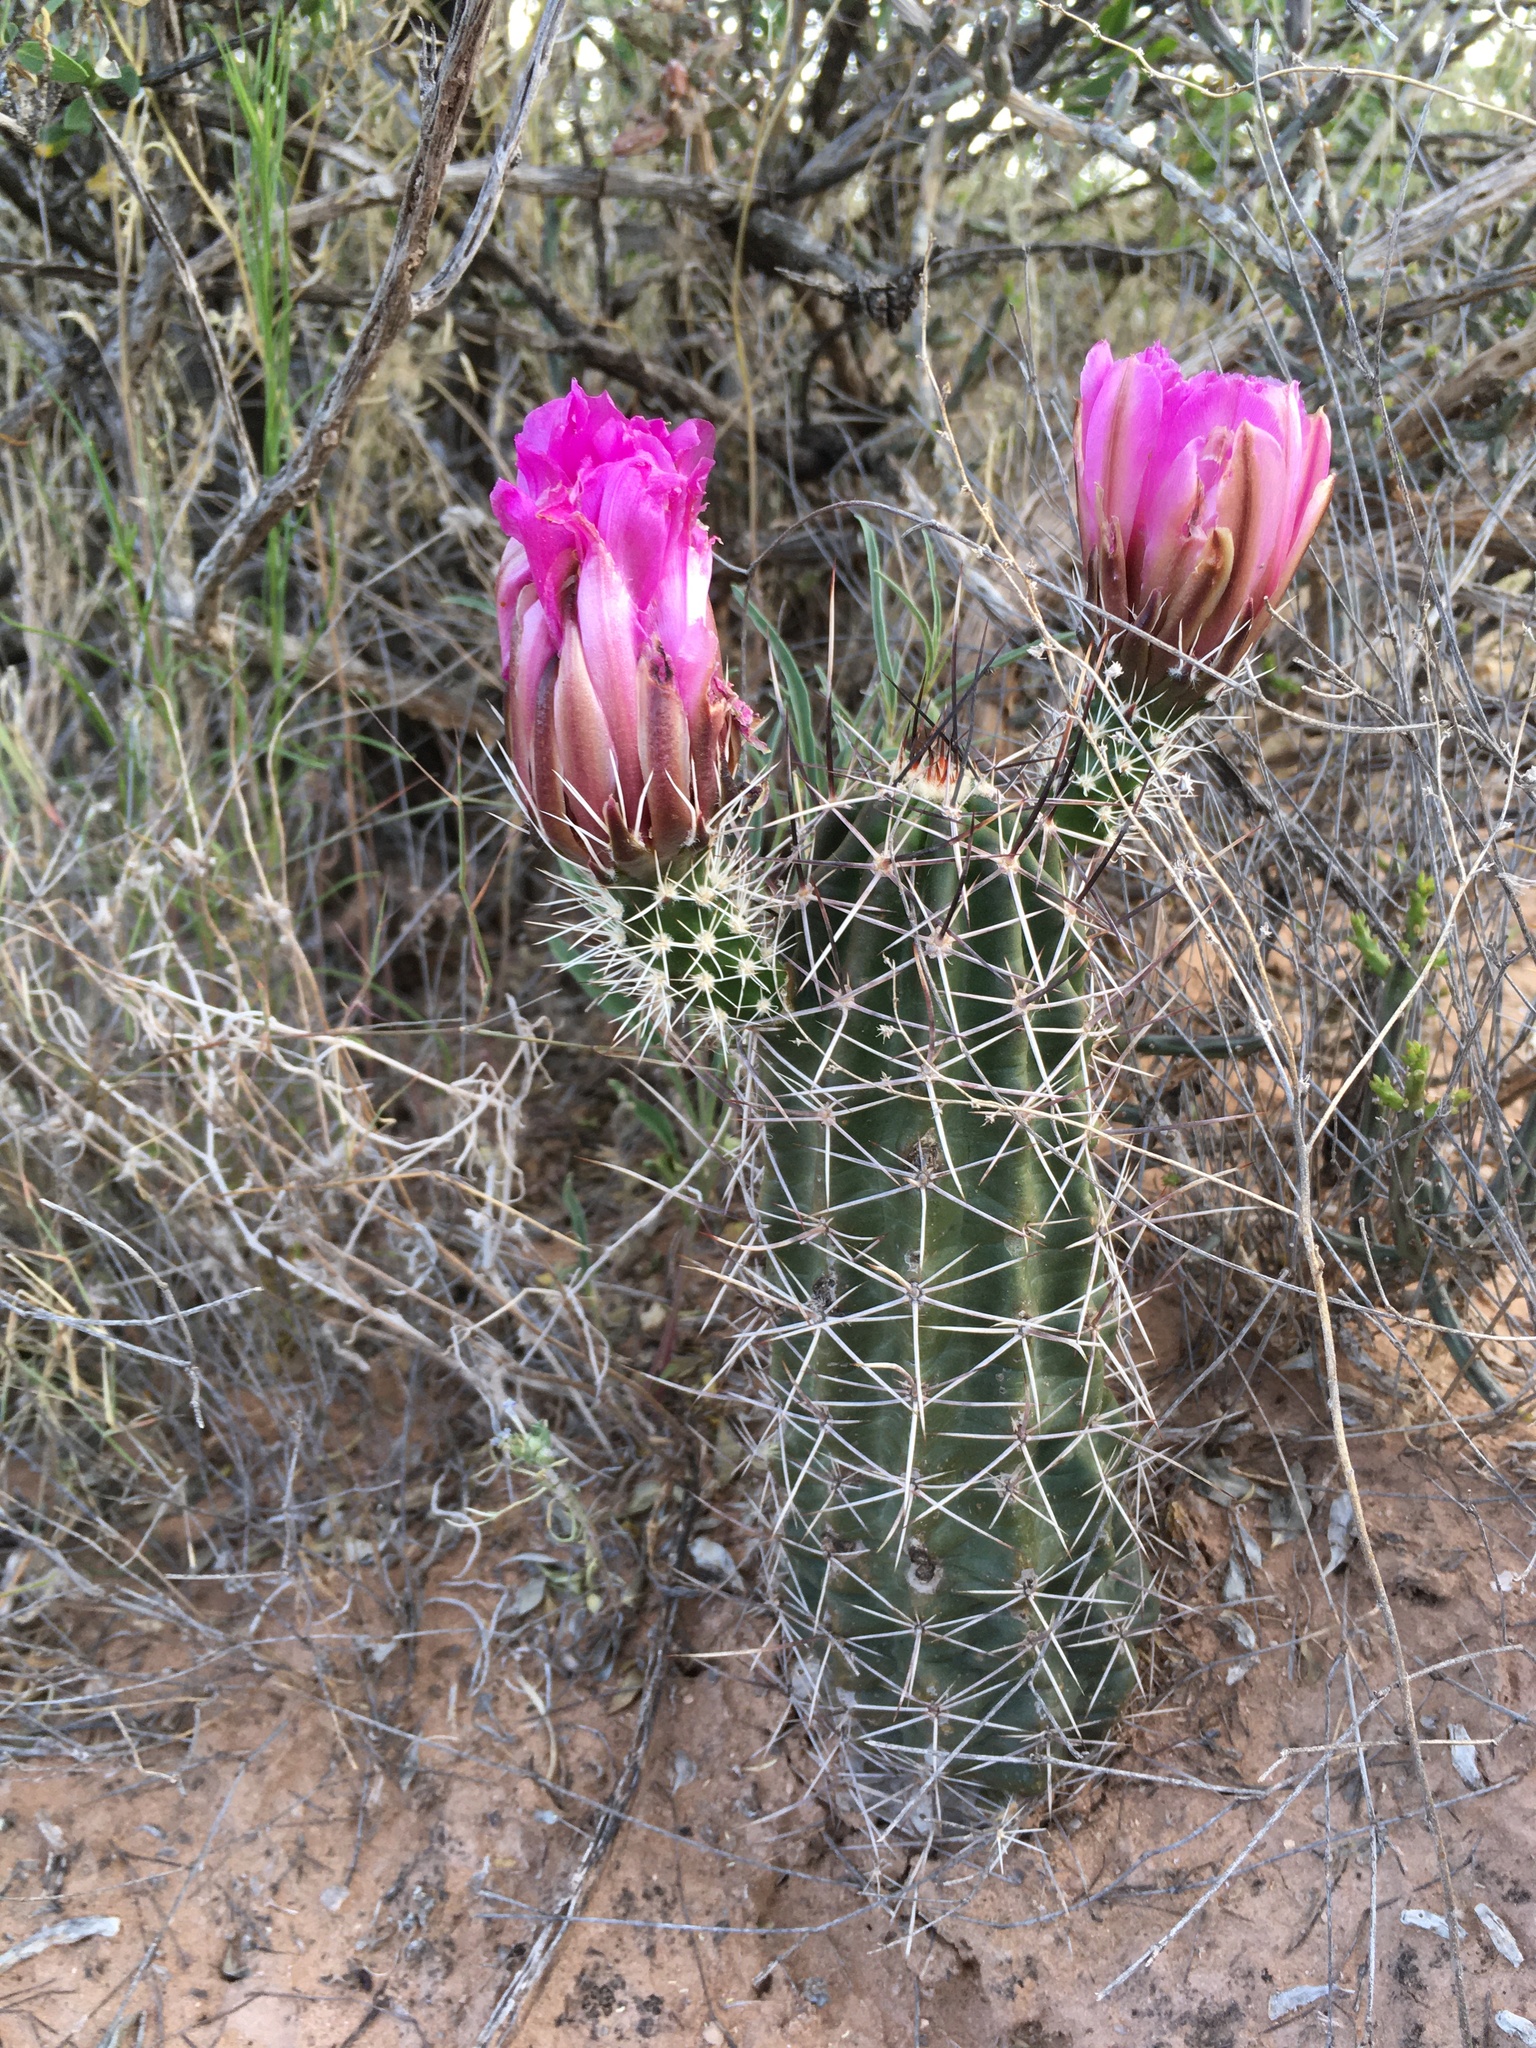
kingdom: Plantae
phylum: Tracheophyta
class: Magnoliopsida
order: Caryophyllales
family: Cactaceae
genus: Echinocereus
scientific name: Echinocereus fendleri
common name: Fendler's hedgehog cactus
